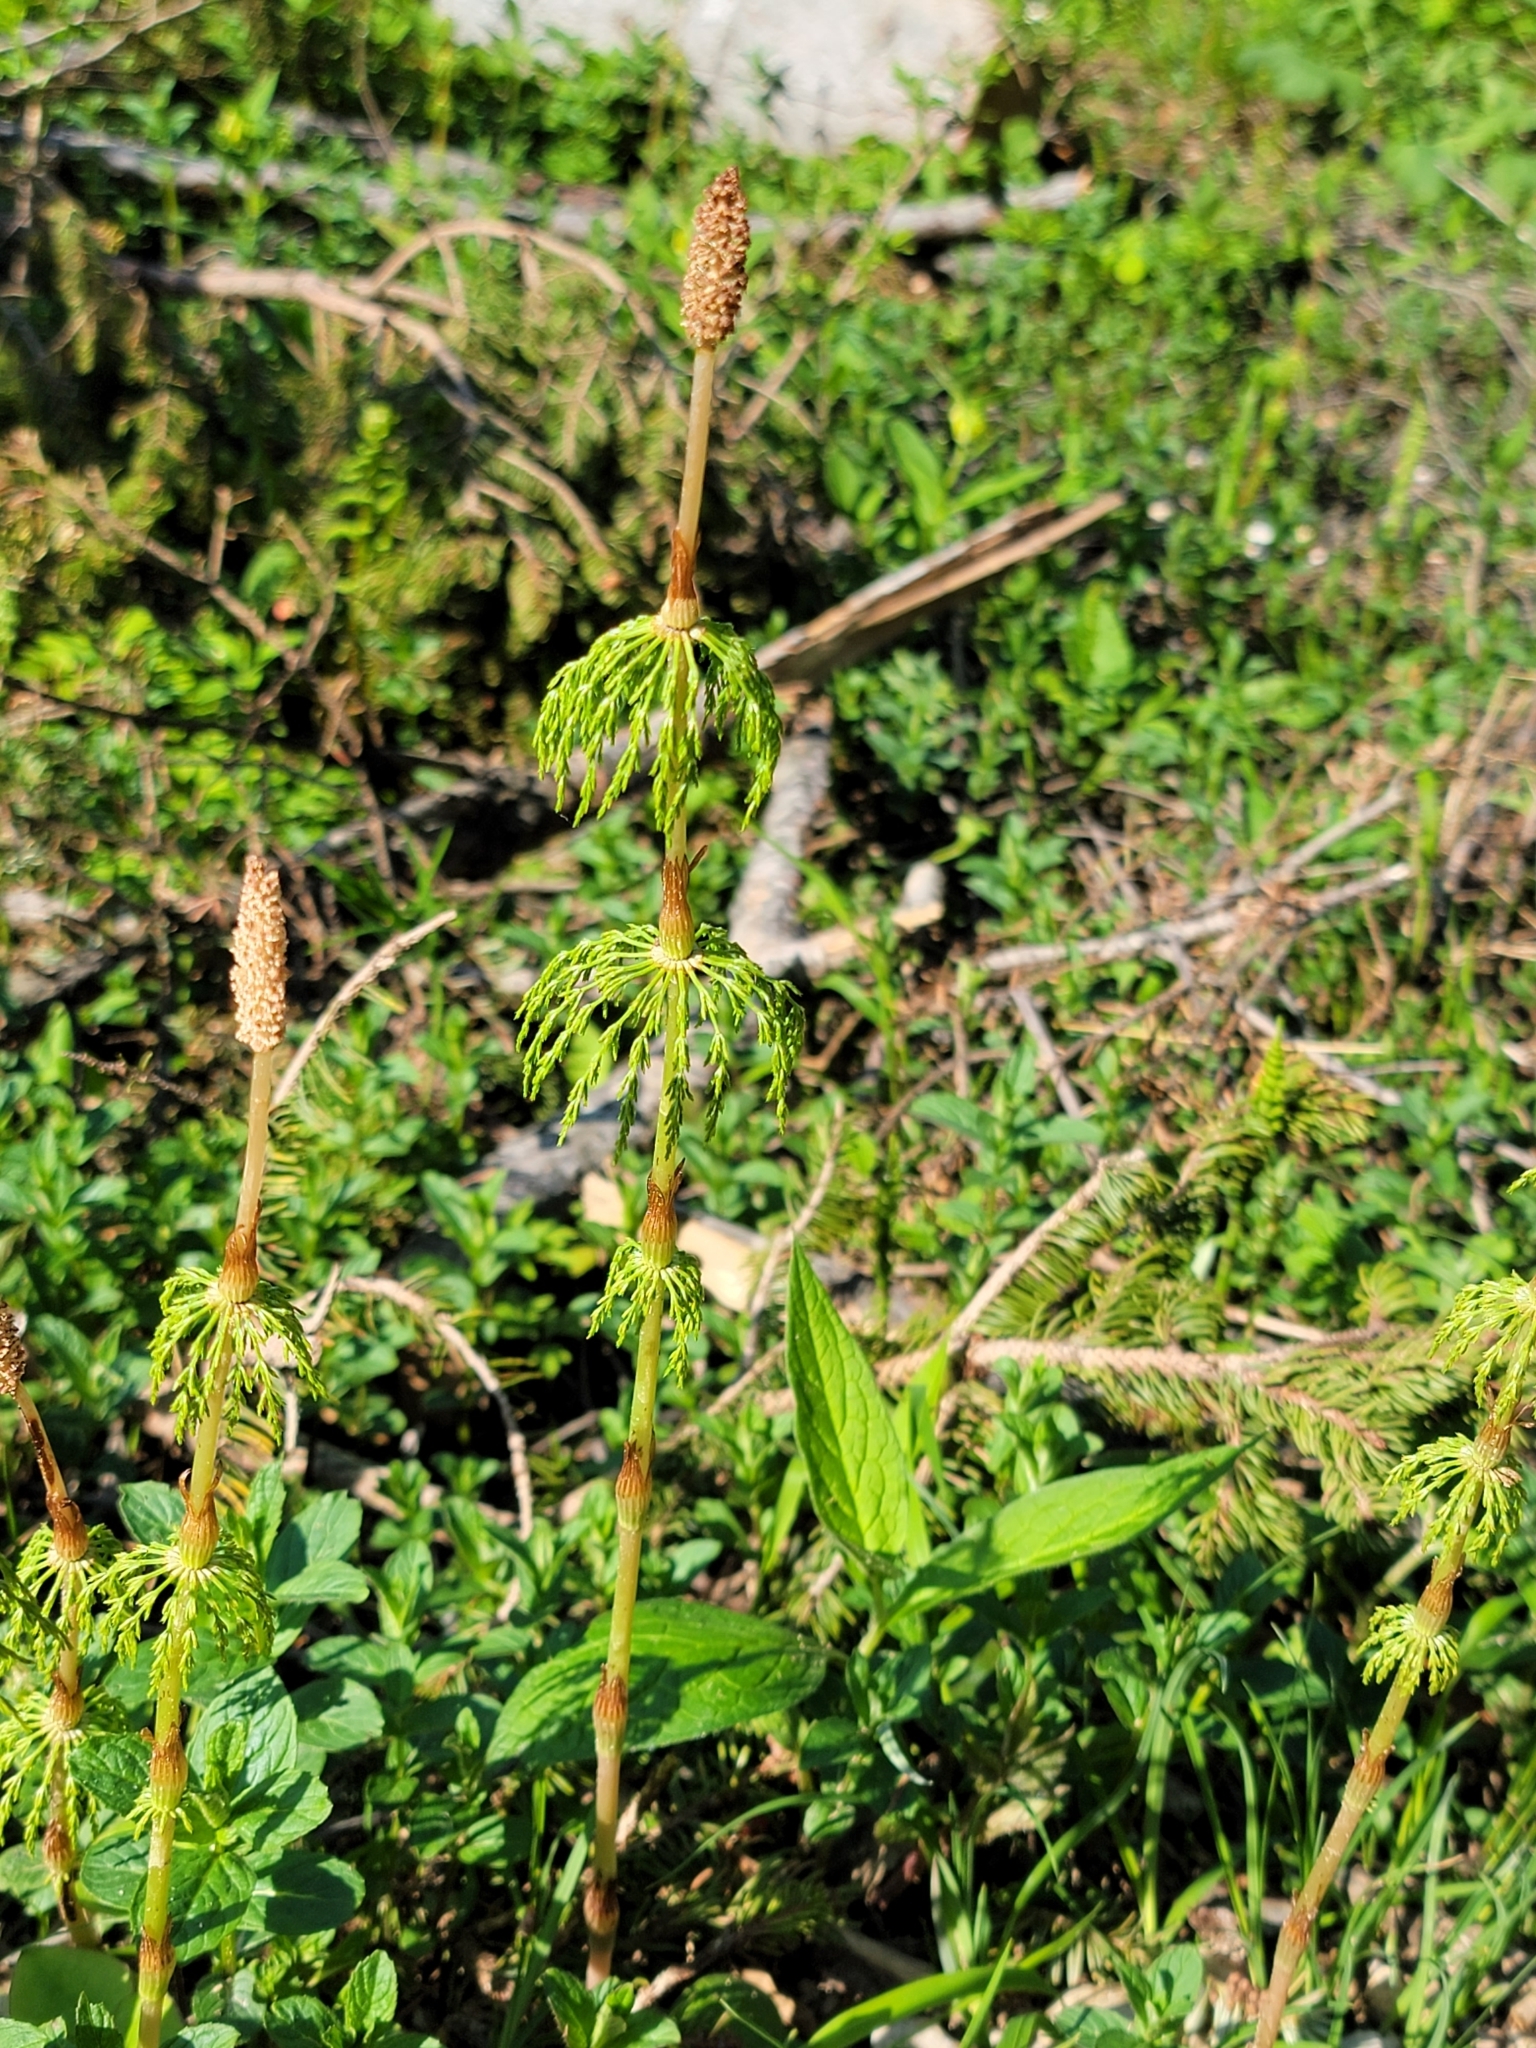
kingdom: Plantae
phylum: Tracheophyta
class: Polypodiopsida
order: Equisetales
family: Equisetaceae
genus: Equisetum
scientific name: Equisetum sylvaticum
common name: Wood horsetail
